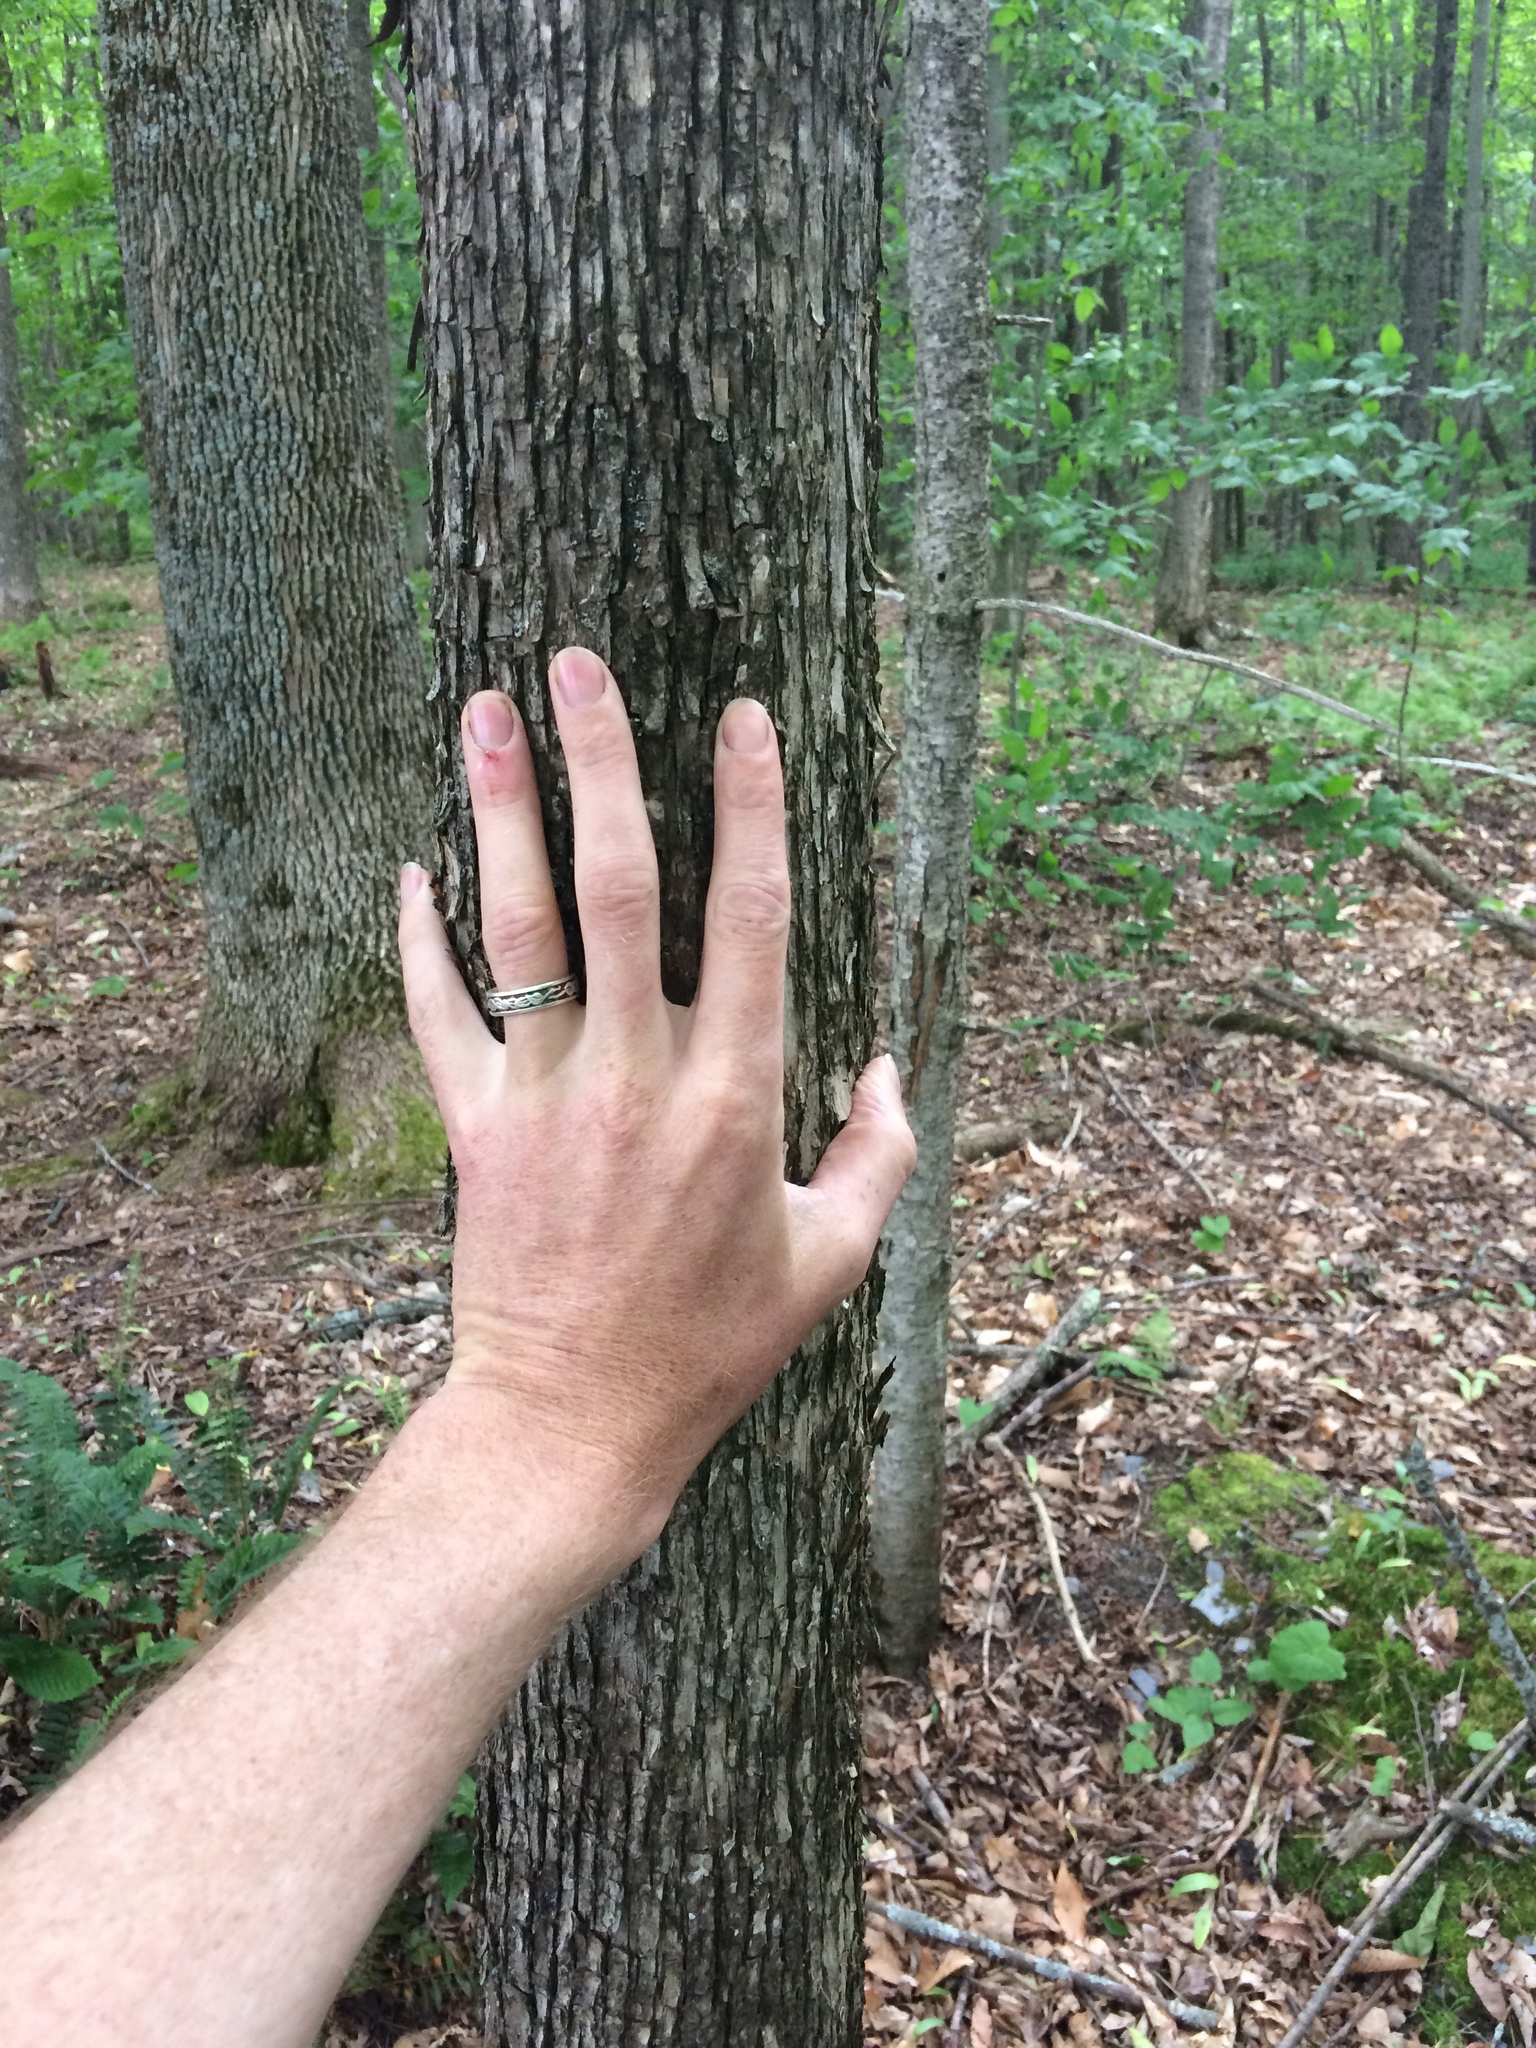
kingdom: Plantae
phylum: Tracheophyta
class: Magnoliopsida
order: Fagales
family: Betulaceae
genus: Ostrya
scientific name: Ostrya virginiana
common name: Ironwood
